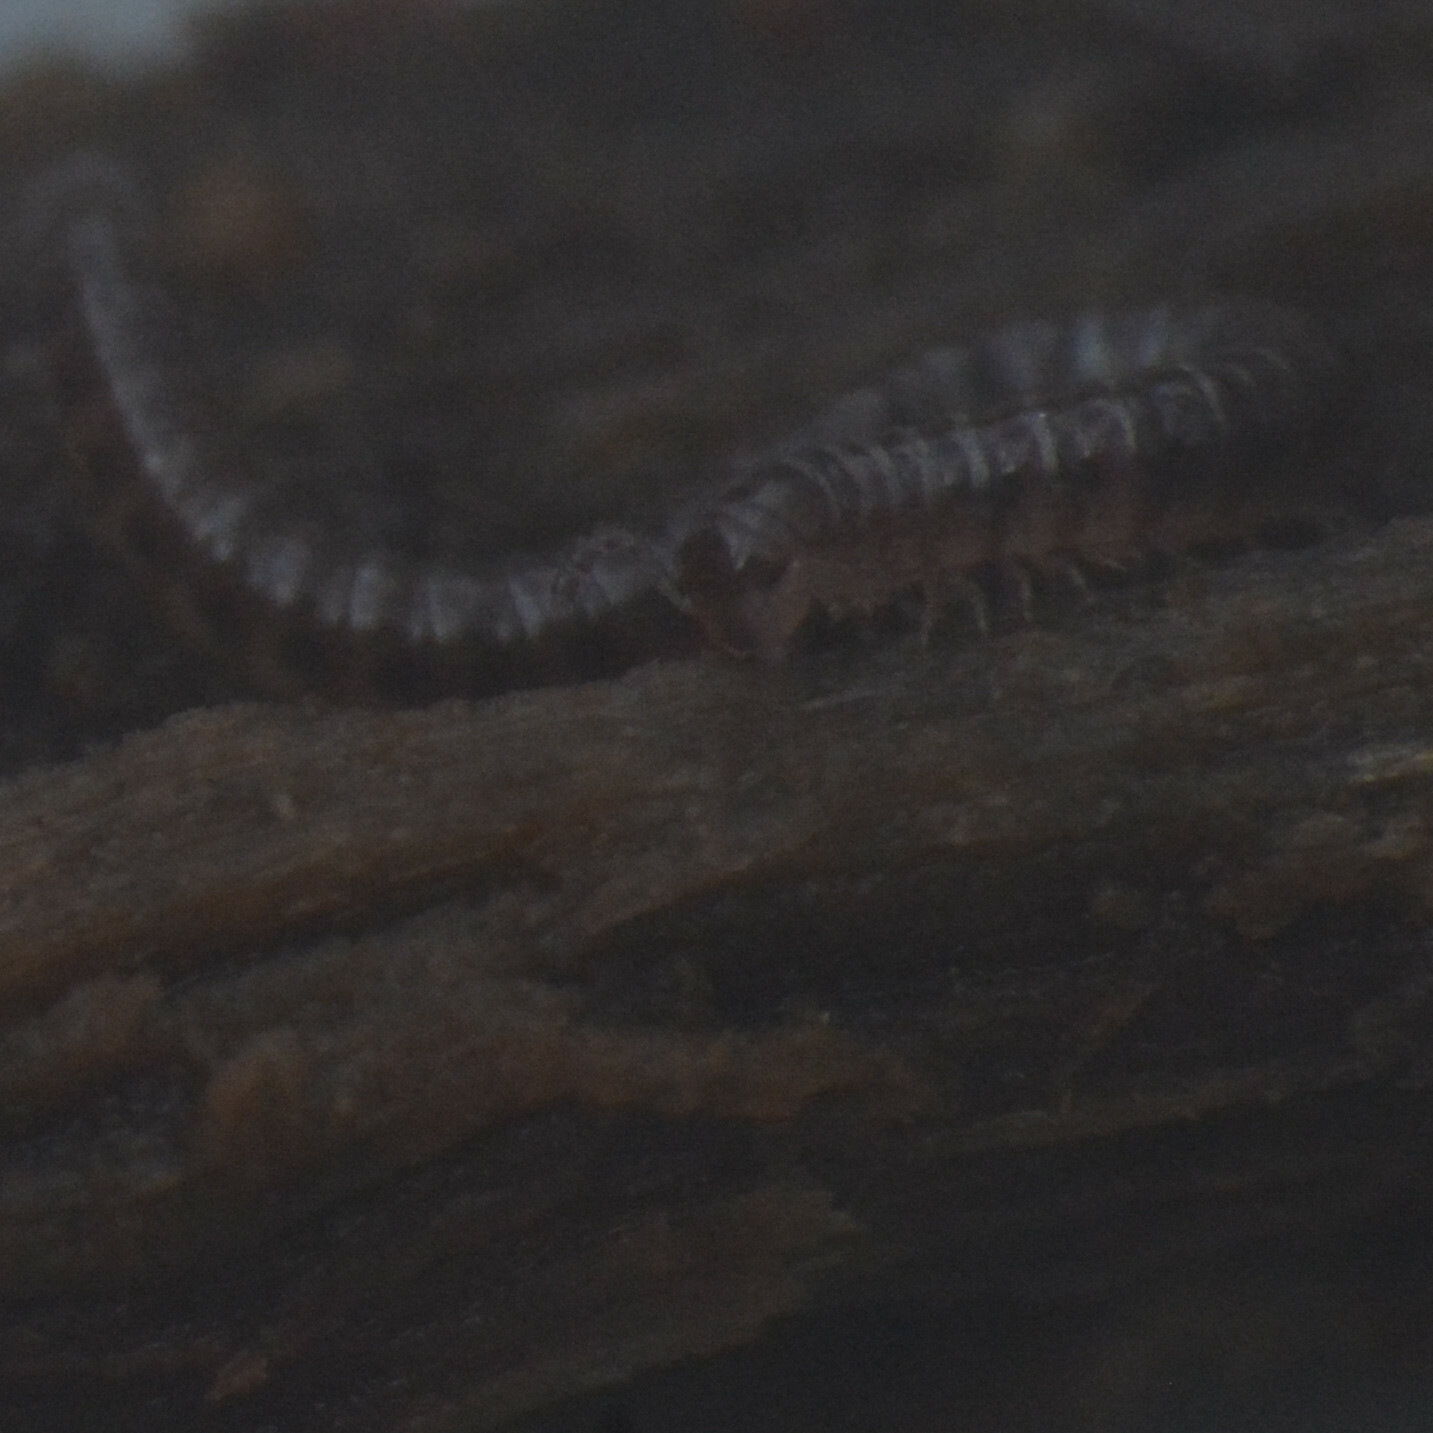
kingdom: Animalia
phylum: Arthropoda
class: Diplopoda
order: Julida
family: Blaniulidae
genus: Proteroiulus
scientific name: Proteroiulus fuscus
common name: Millipede
